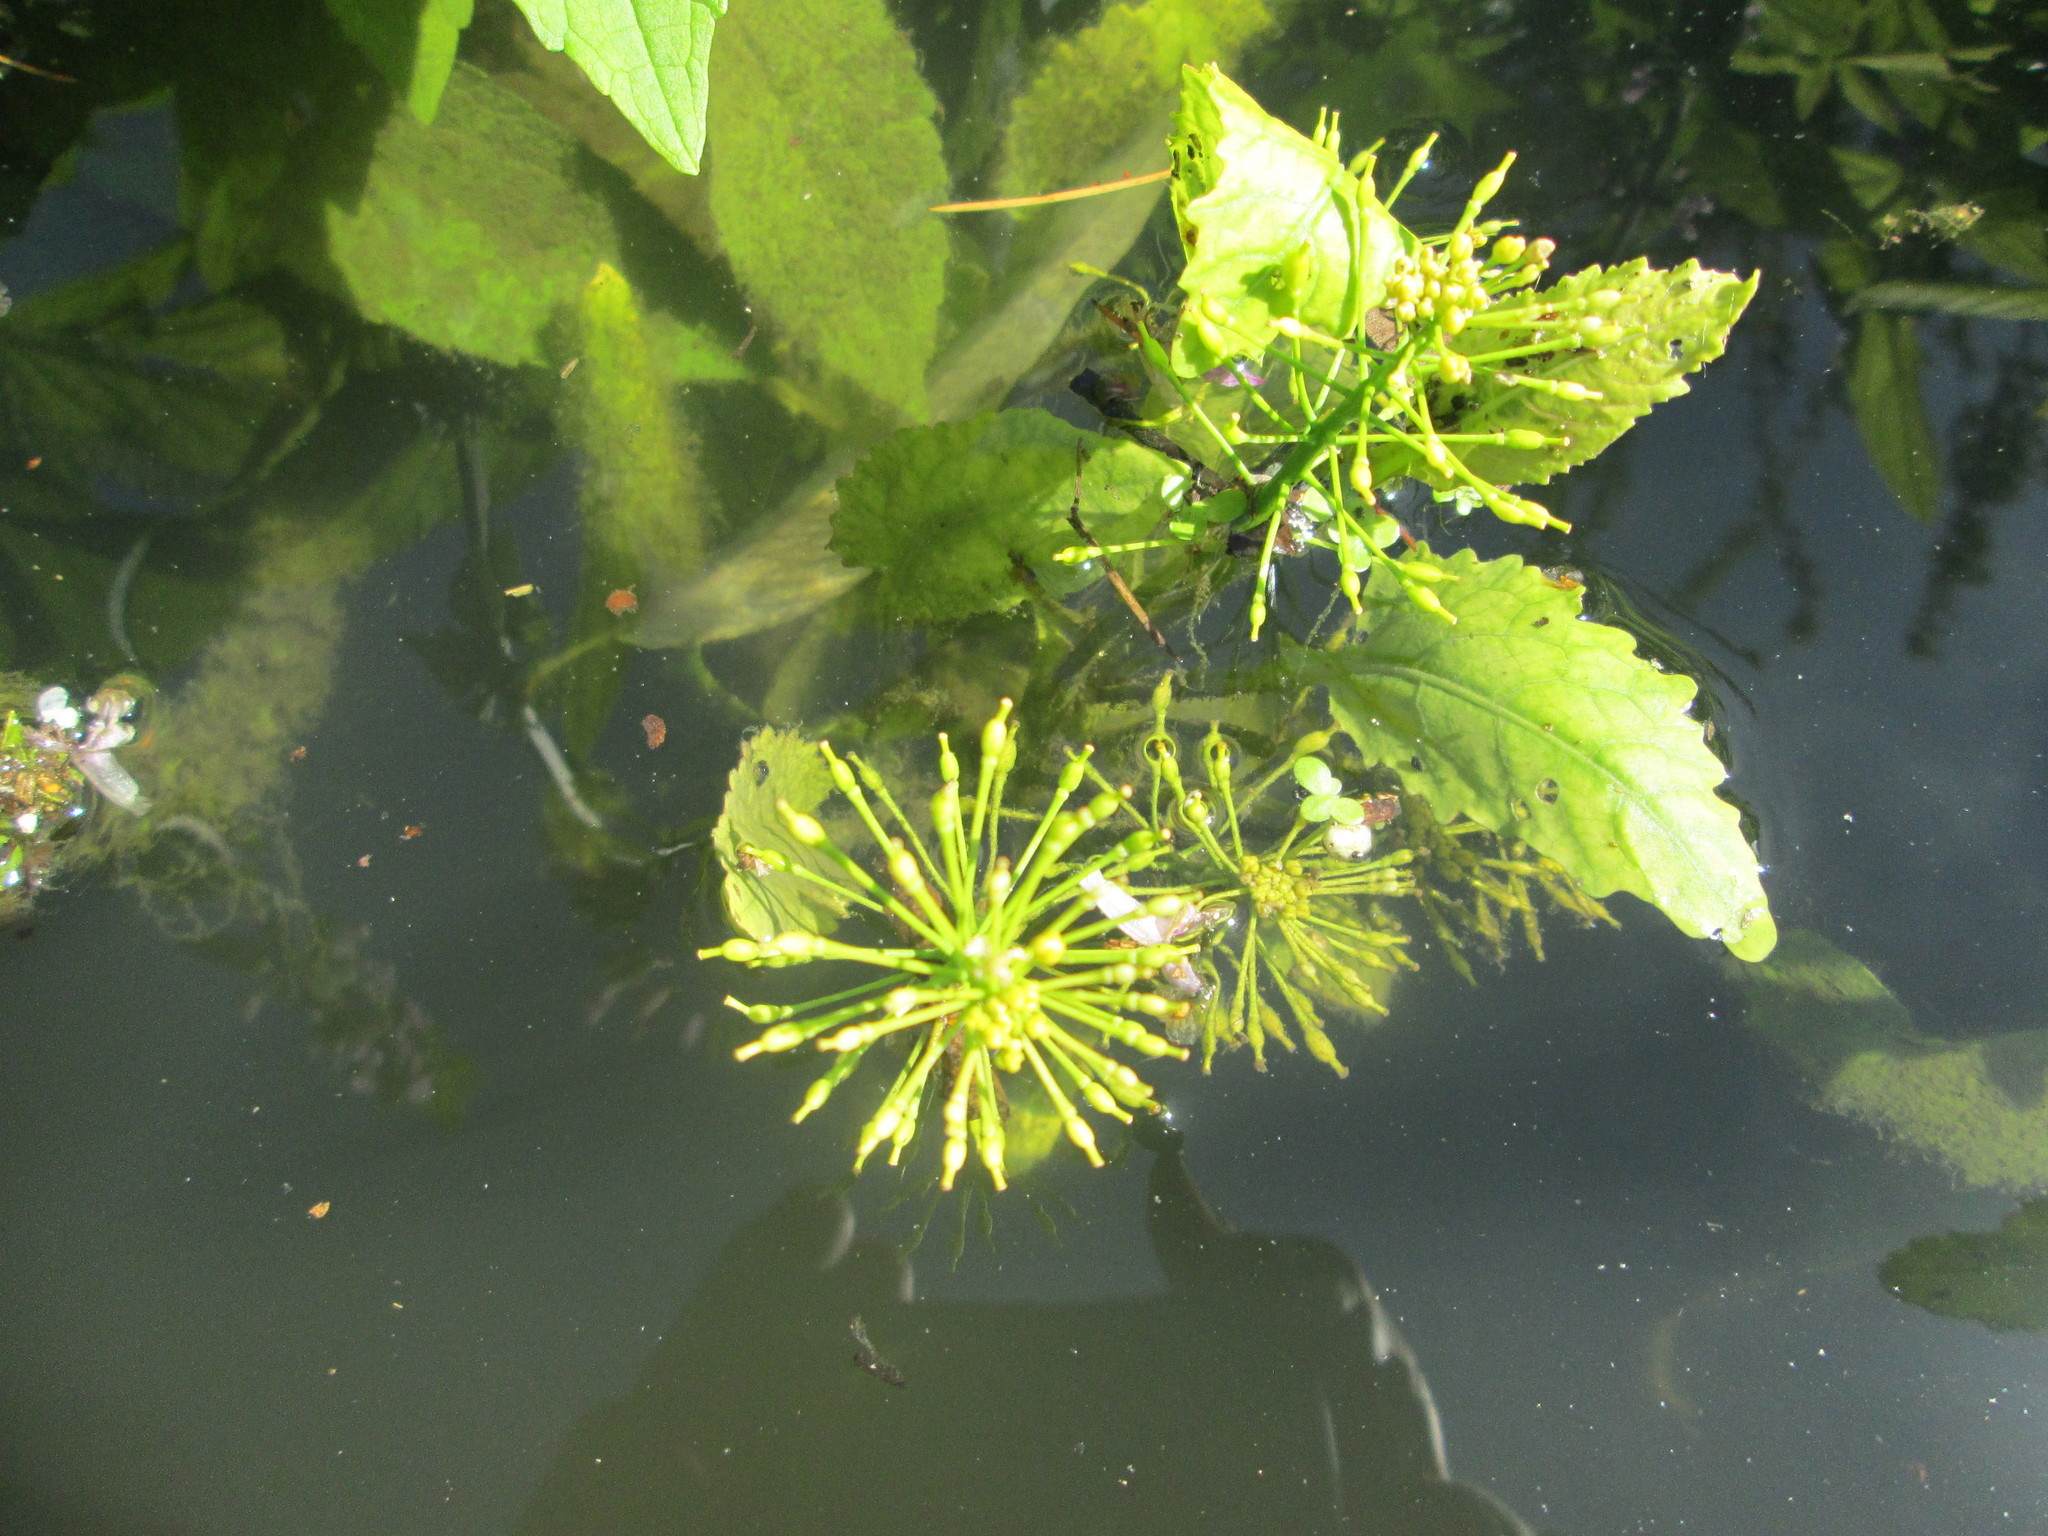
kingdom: Plantae
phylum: Tracheophyta
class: Magnoliopsida
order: Brassicales
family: Brassicaceae
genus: Rorippa
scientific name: Rorippa amphibia
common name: Great yellow-cress
